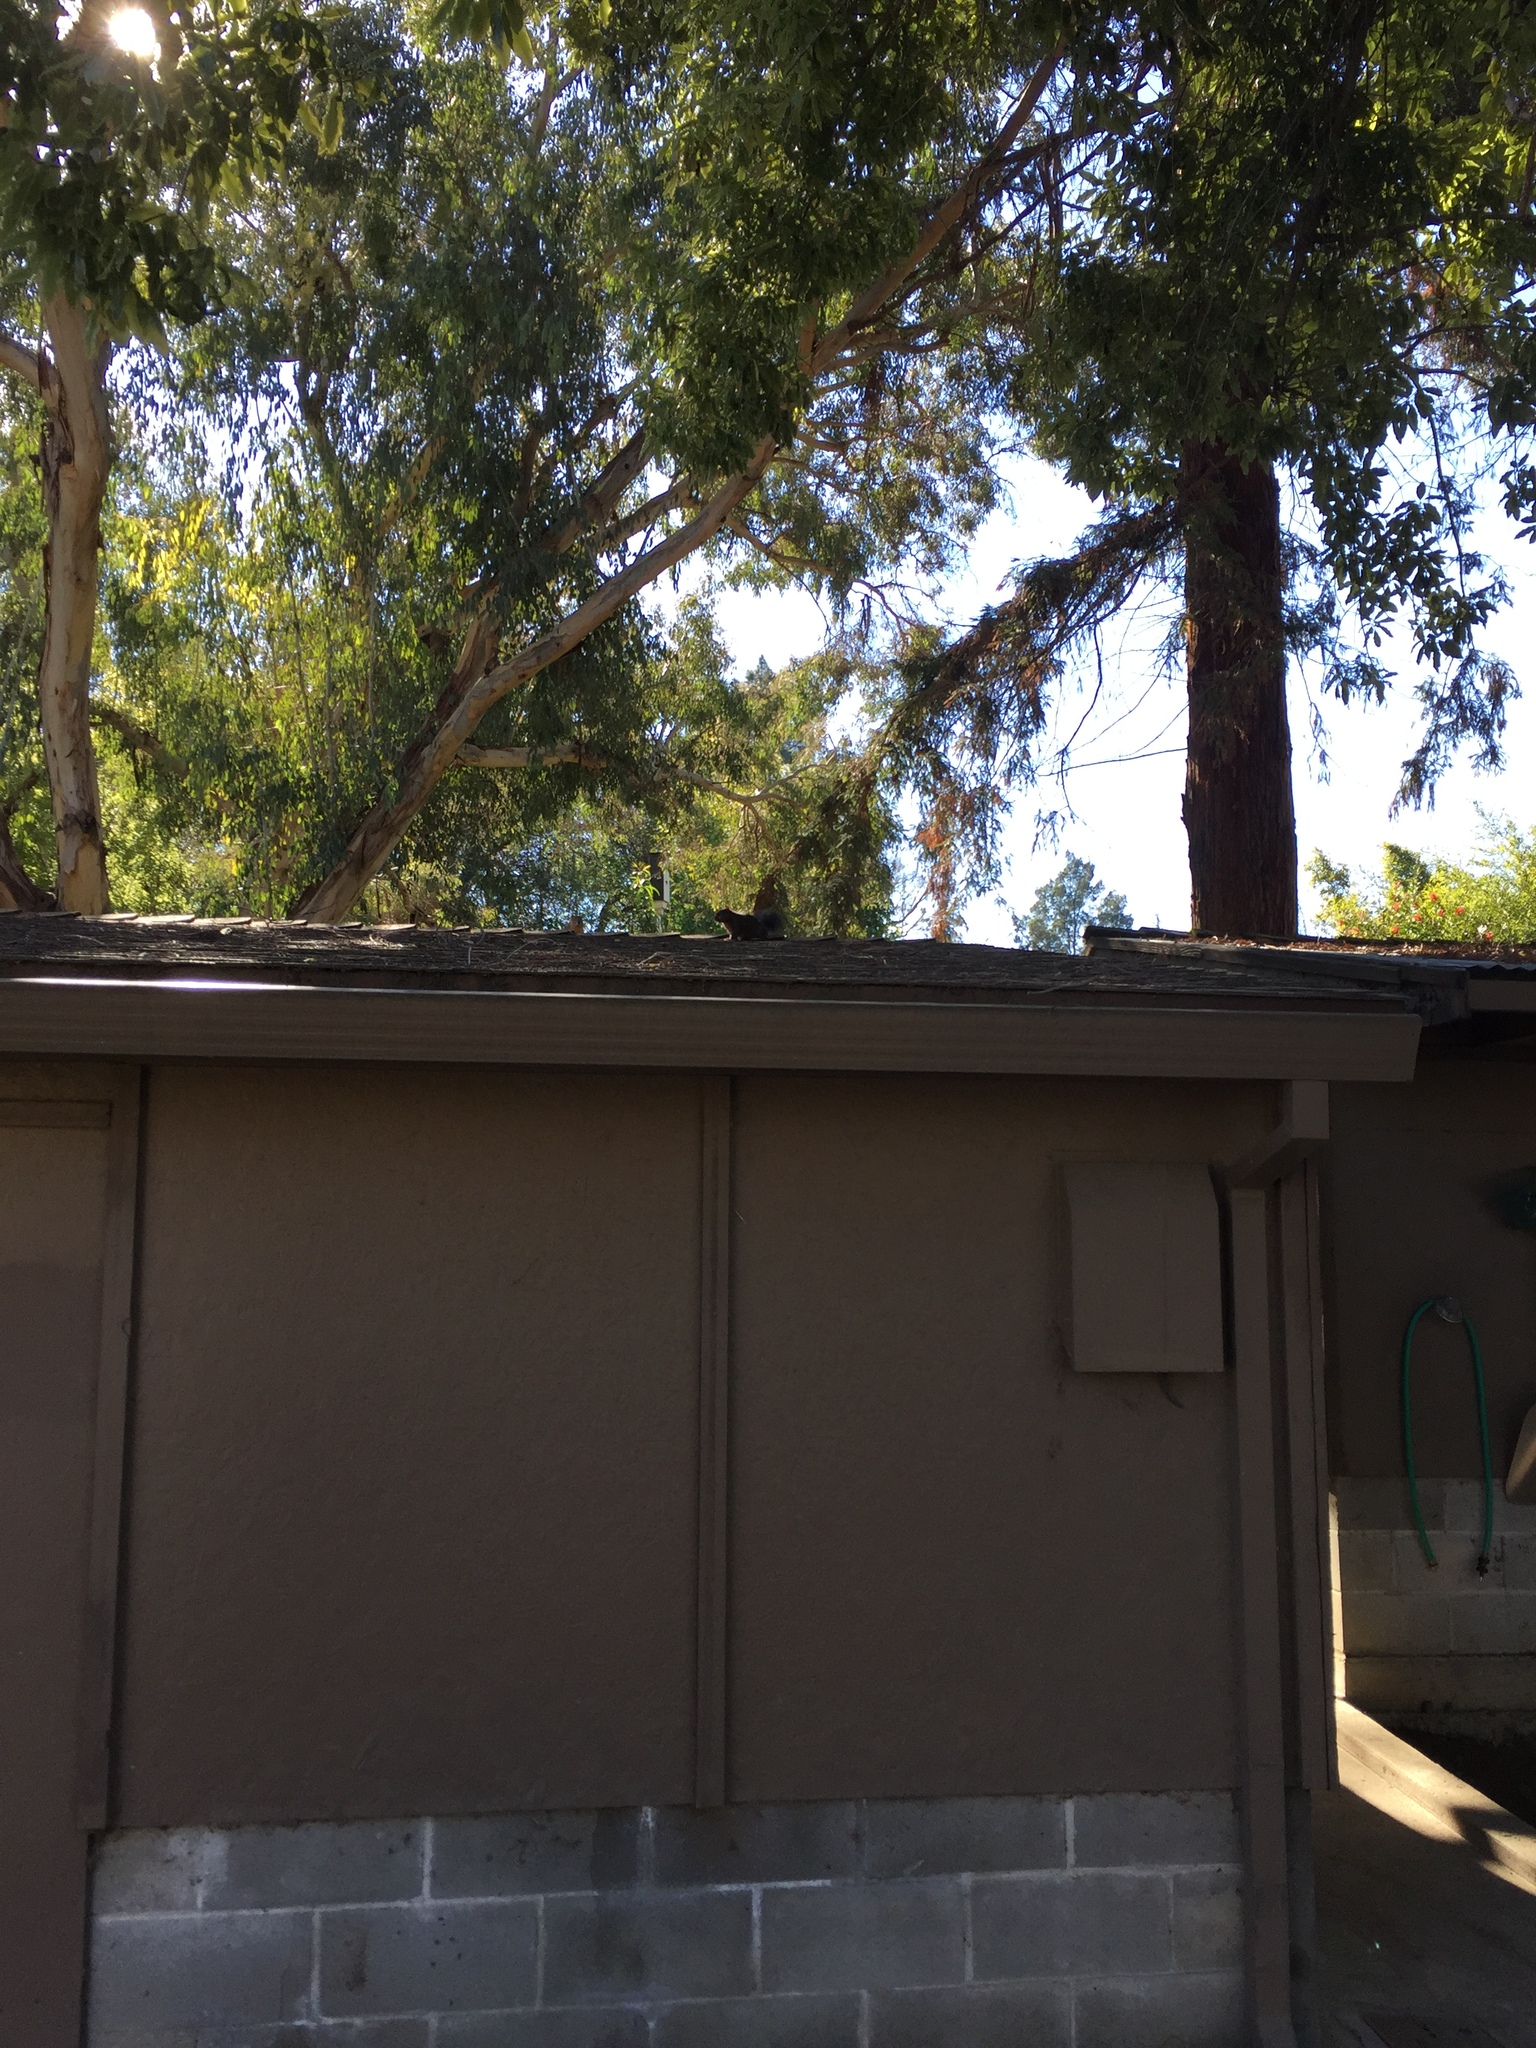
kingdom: Animalia
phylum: Chordata
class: Mammalia
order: Rodentia
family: Sciuridae
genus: Sciurus
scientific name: Sciurus carolinensis
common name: Eastern gray squirrel
